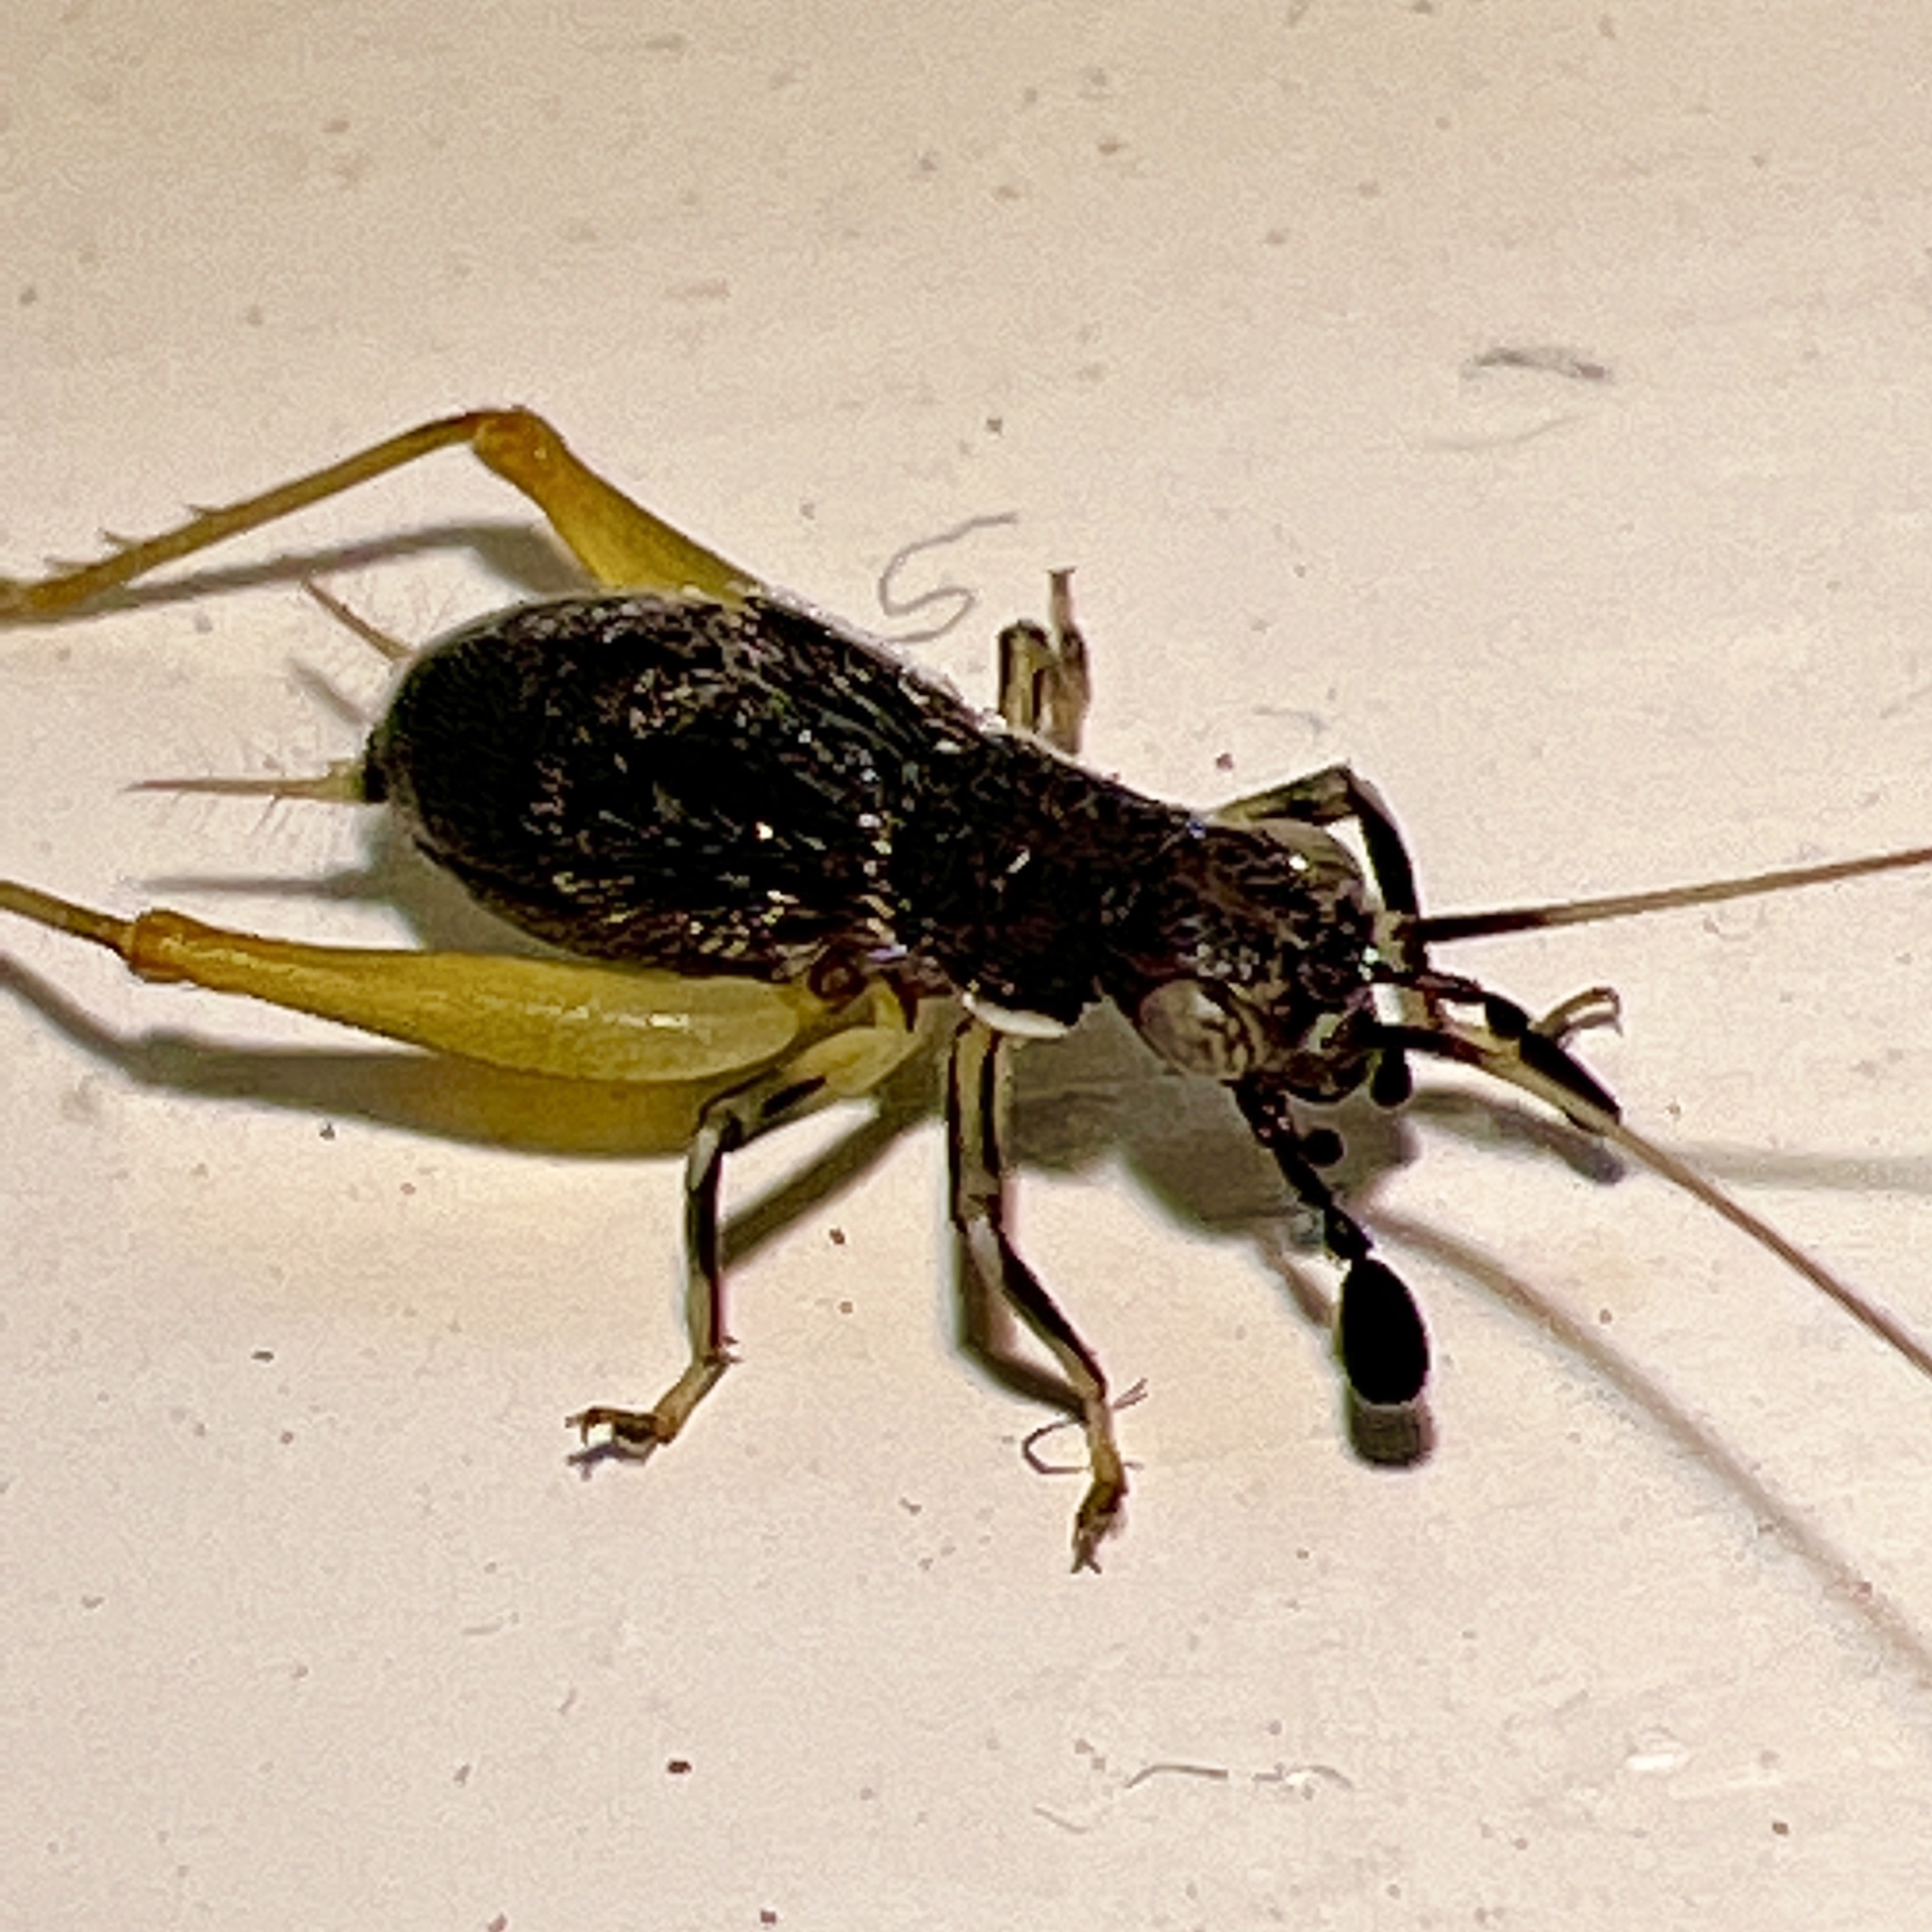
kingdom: Animalia
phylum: Arthropoda
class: Insecta
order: Orthoptera
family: Trigonidiidae
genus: Phyllopalpus
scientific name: Phyllopalpus pulchellus
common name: Handsome trig
